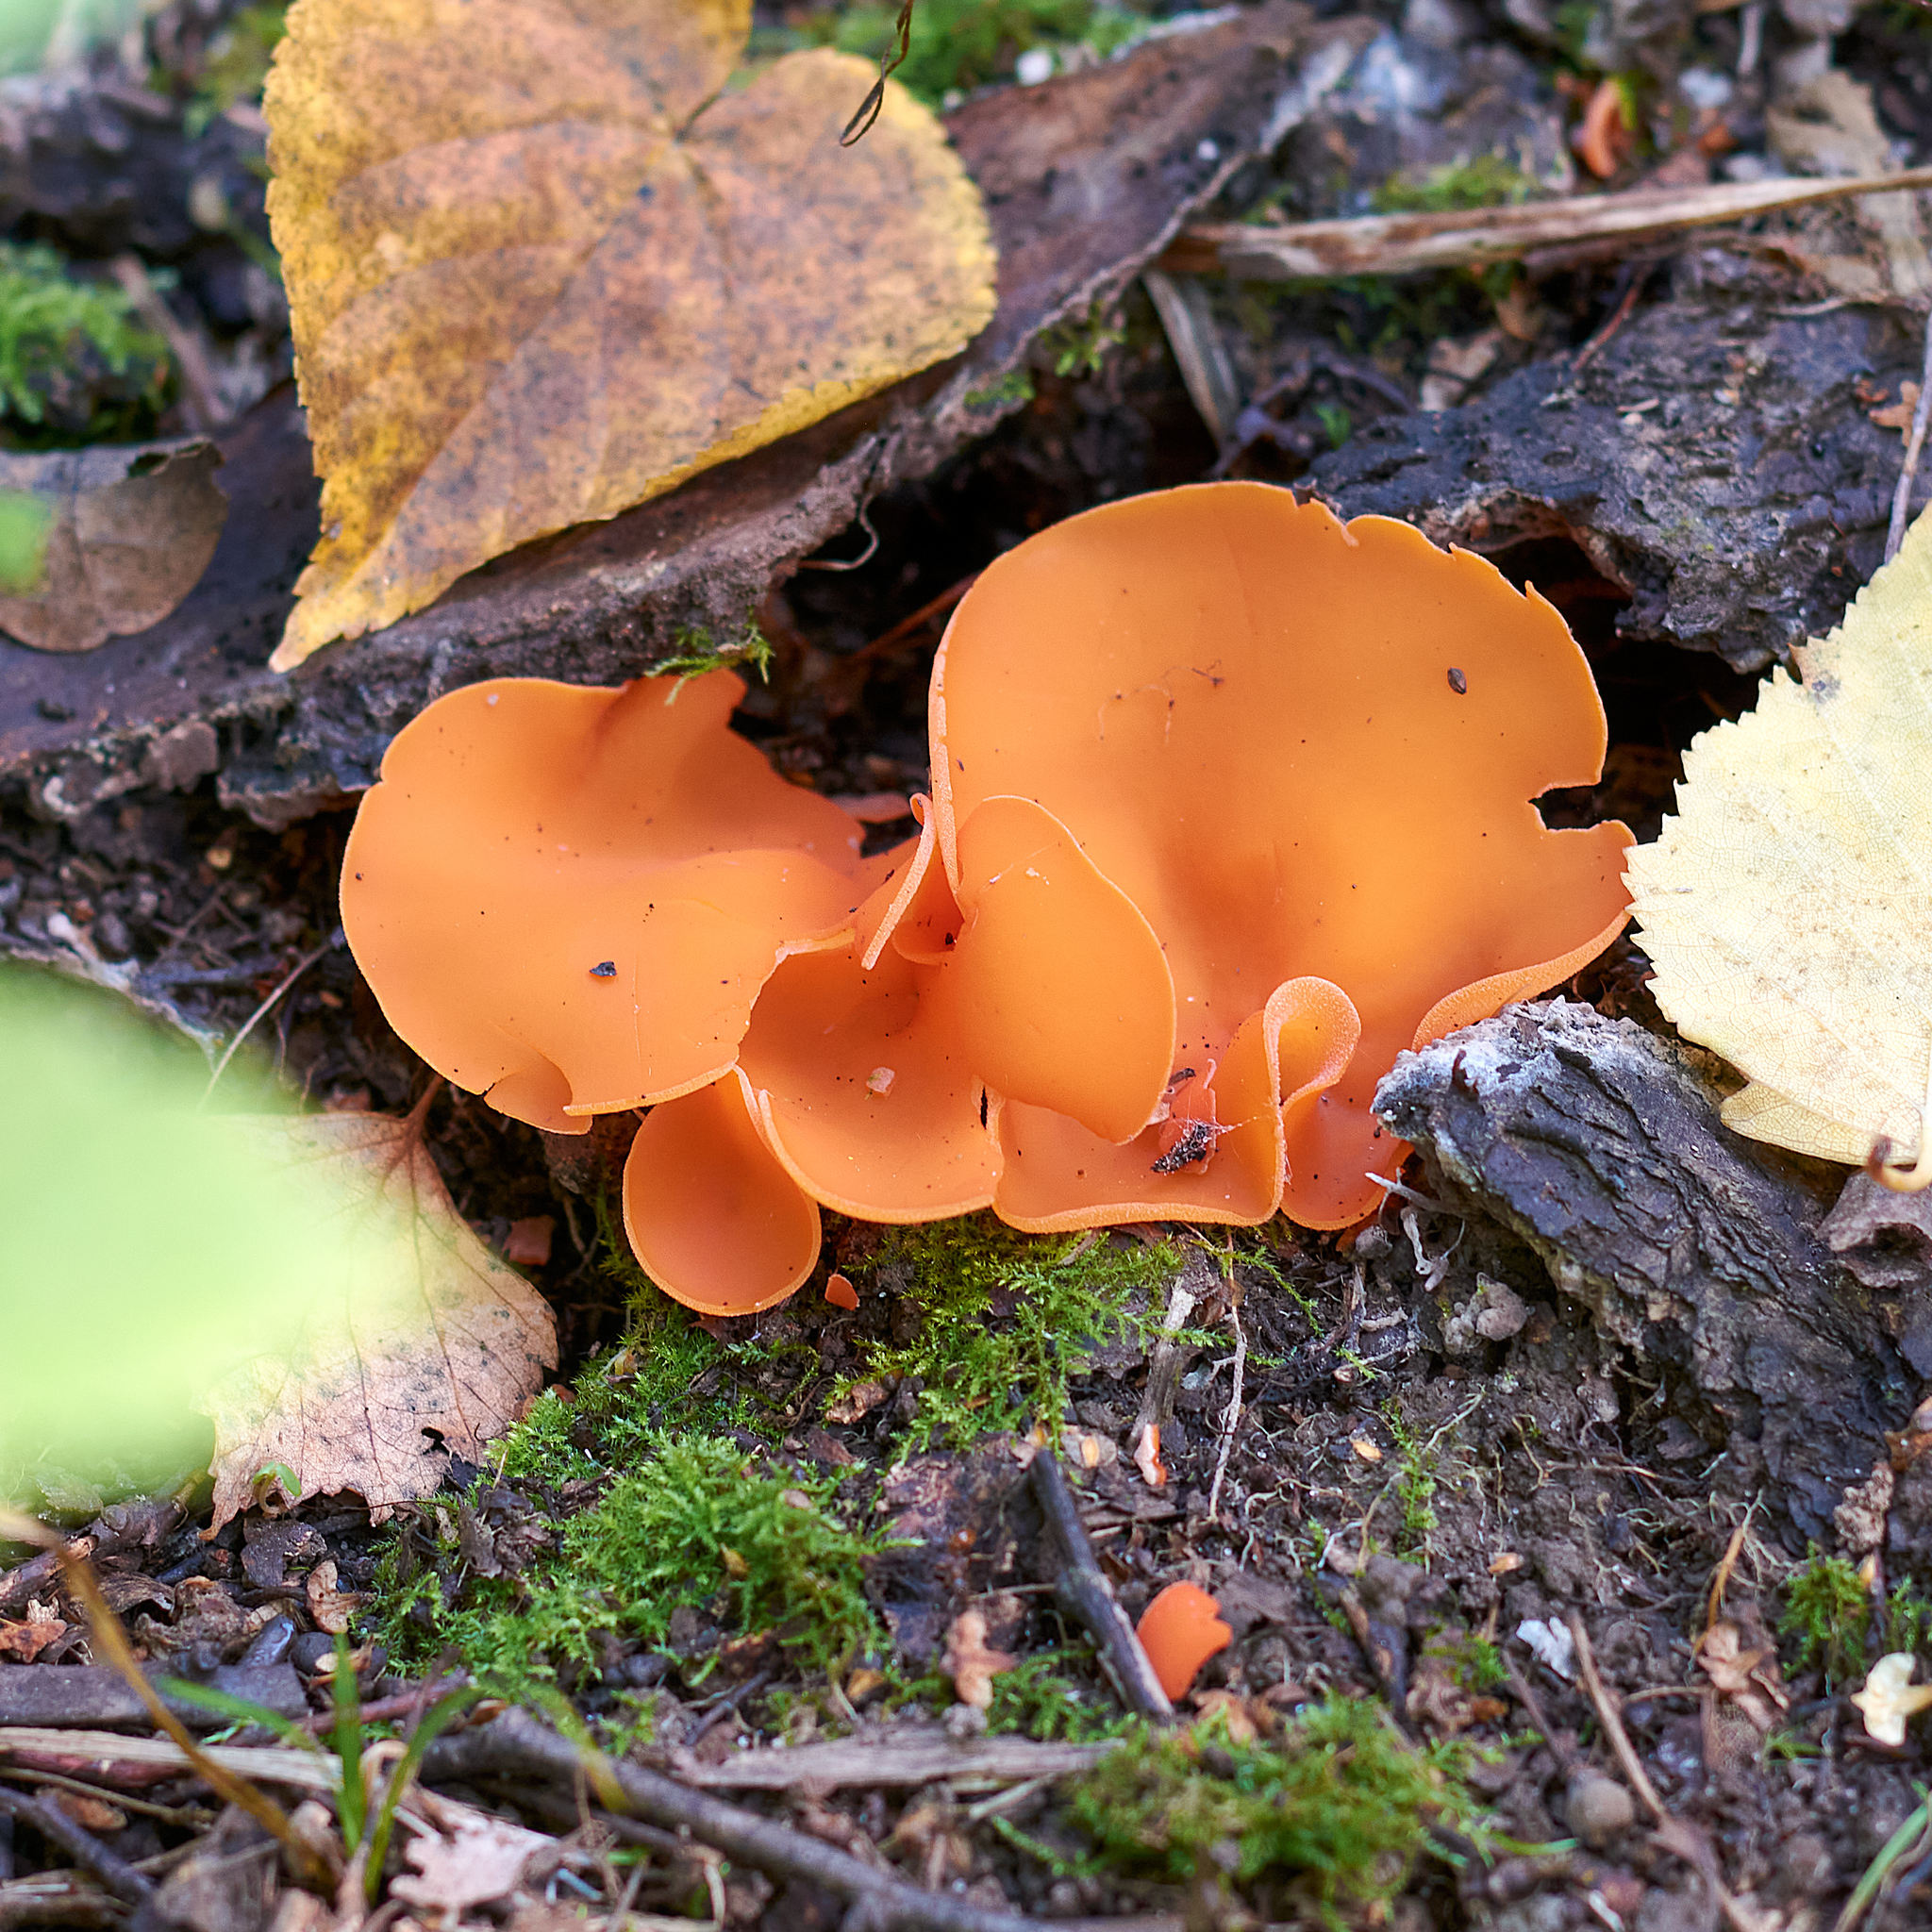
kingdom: Fungi
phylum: Ascomycota
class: Pezizomycetes
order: Pezizales
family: Pyronemataceae
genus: Aleuria
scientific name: Aleuria aurantia
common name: Orange peel fungus
